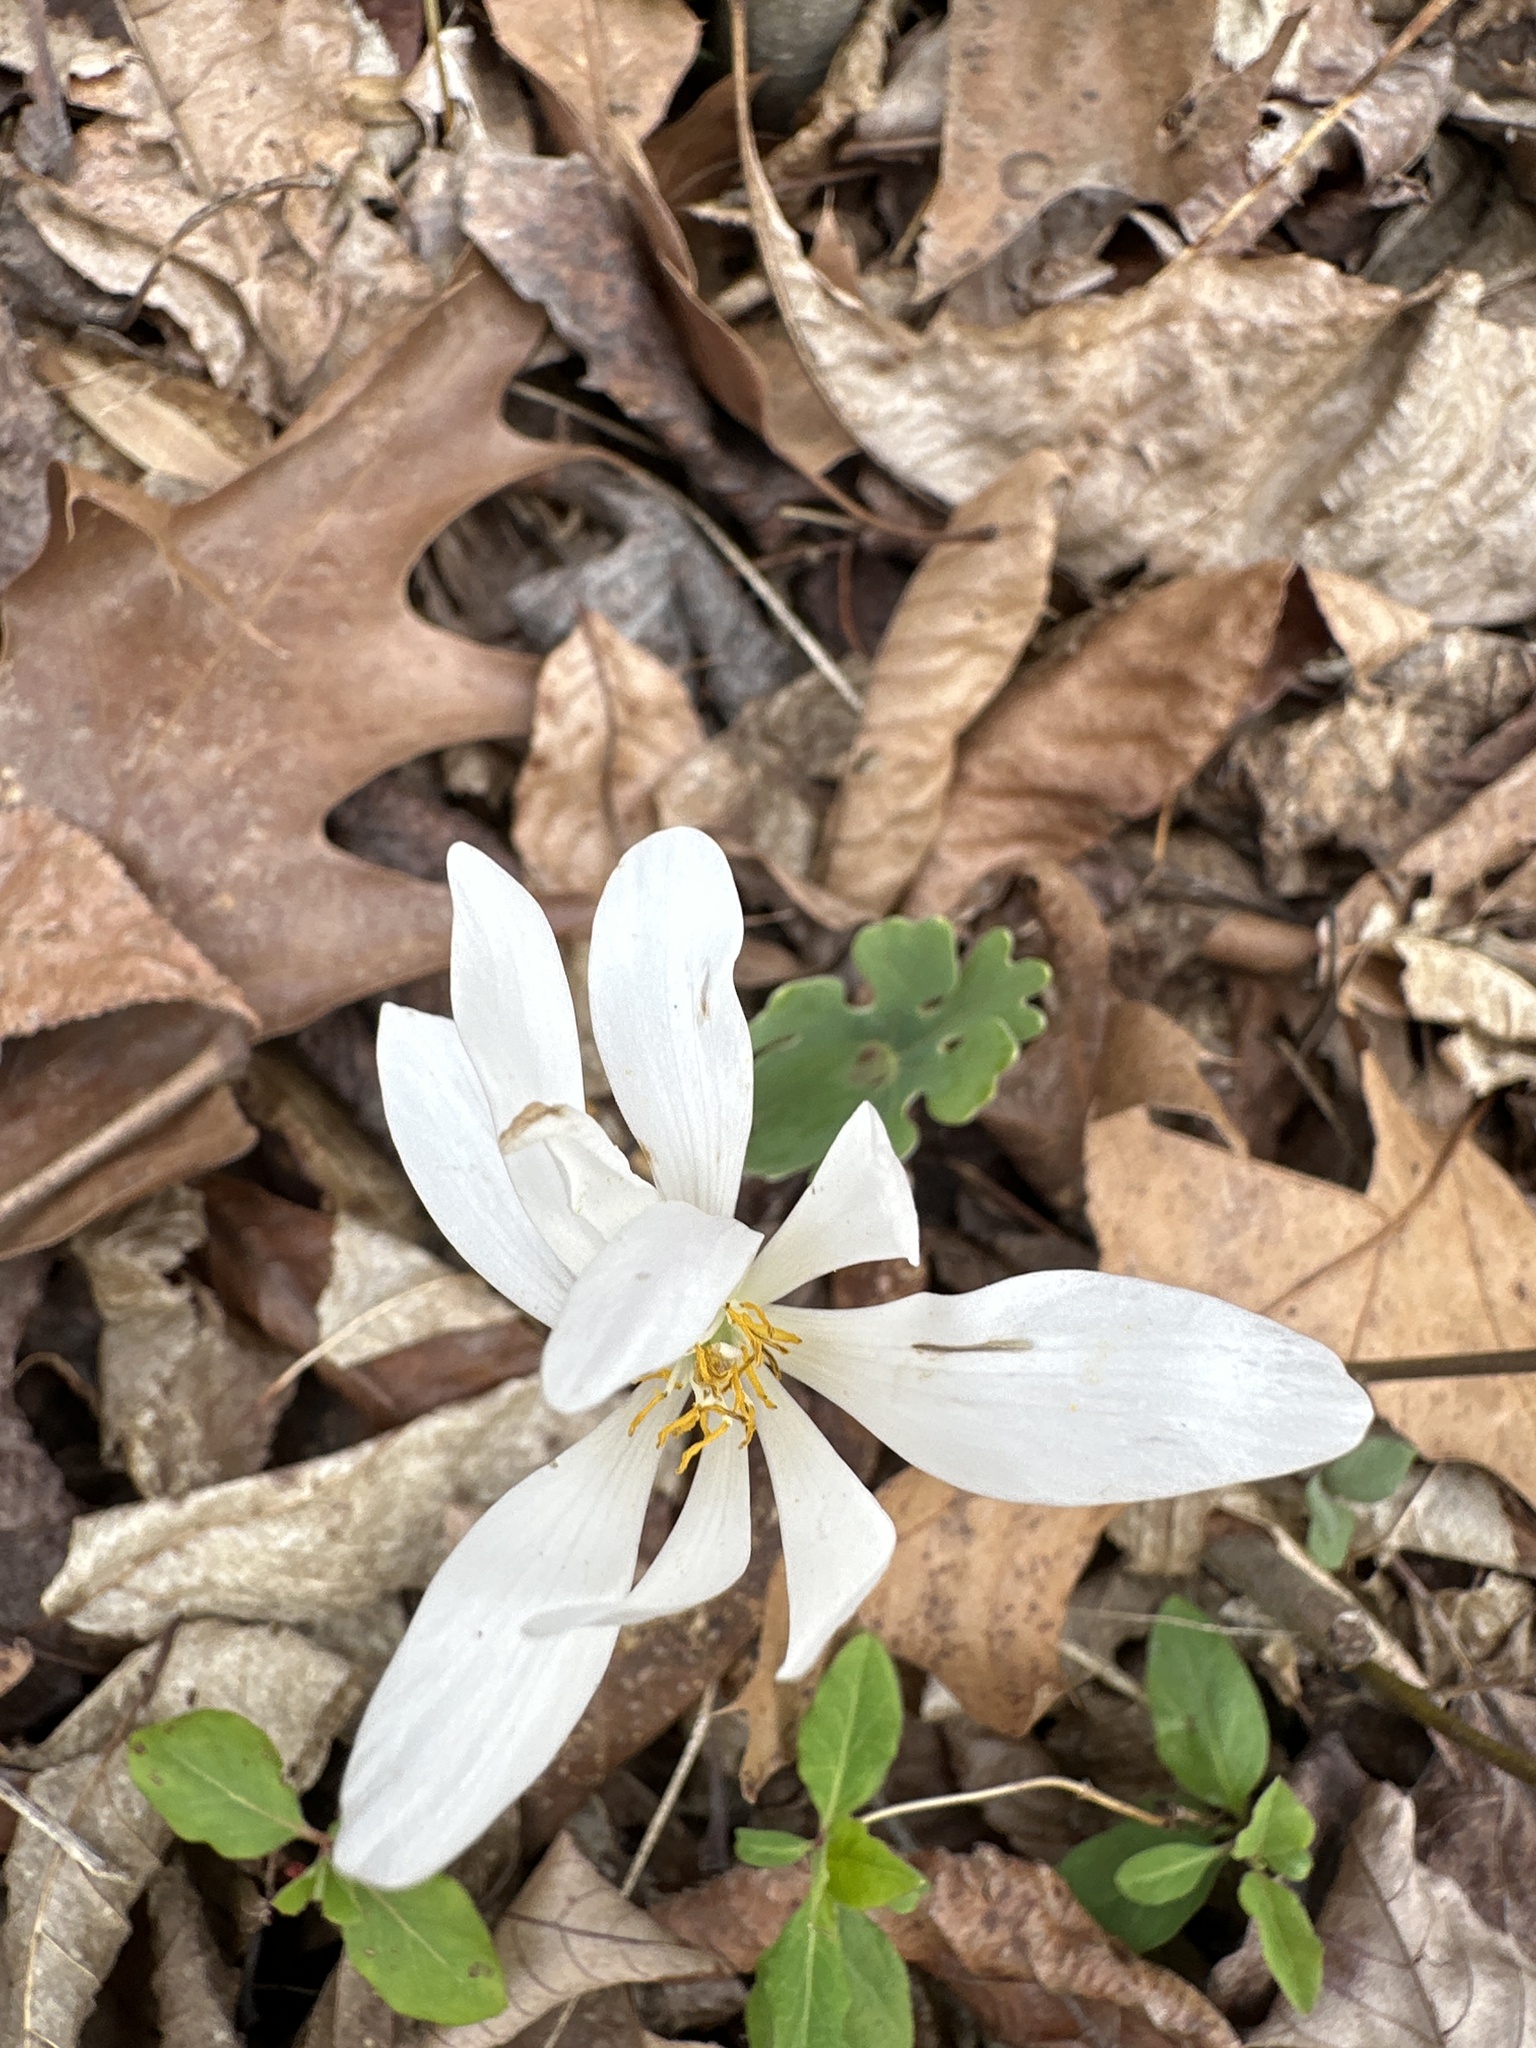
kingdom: Plantae
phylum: Tracheophyta
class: Magnoliopsida
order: Ranunculales
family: Papaveraceae
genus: Sanguinaria
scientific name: Sanguinaria canadensis
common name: Bloodroot
